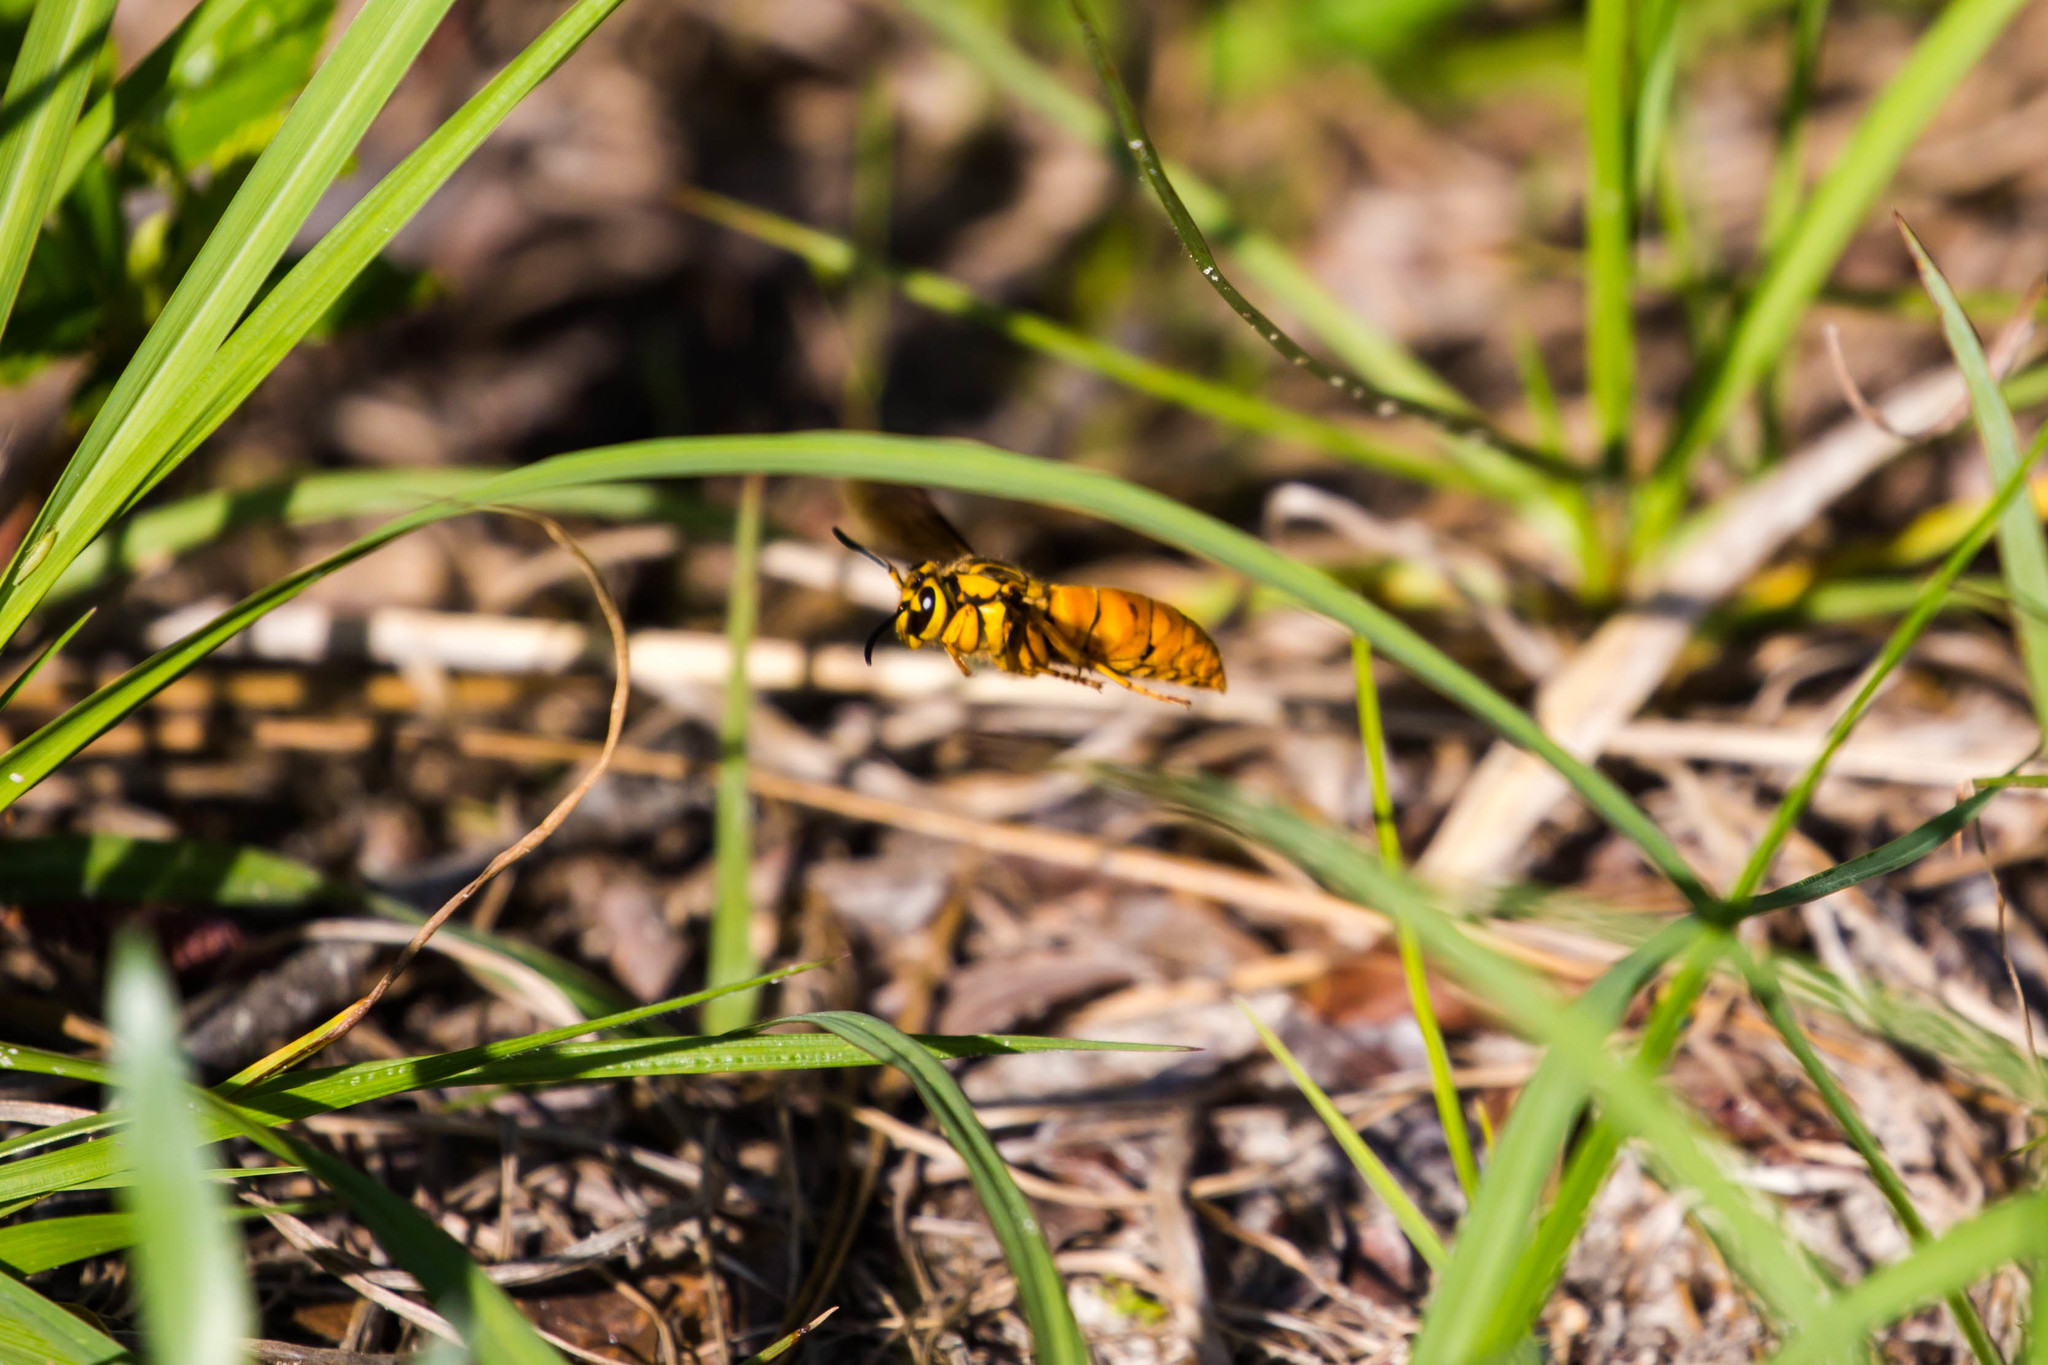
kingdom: Animalia
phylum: Arthropoda
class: Insecta
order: Hymenoptera
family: Vespidae
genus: Vespula
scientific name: Vespula squamosa
